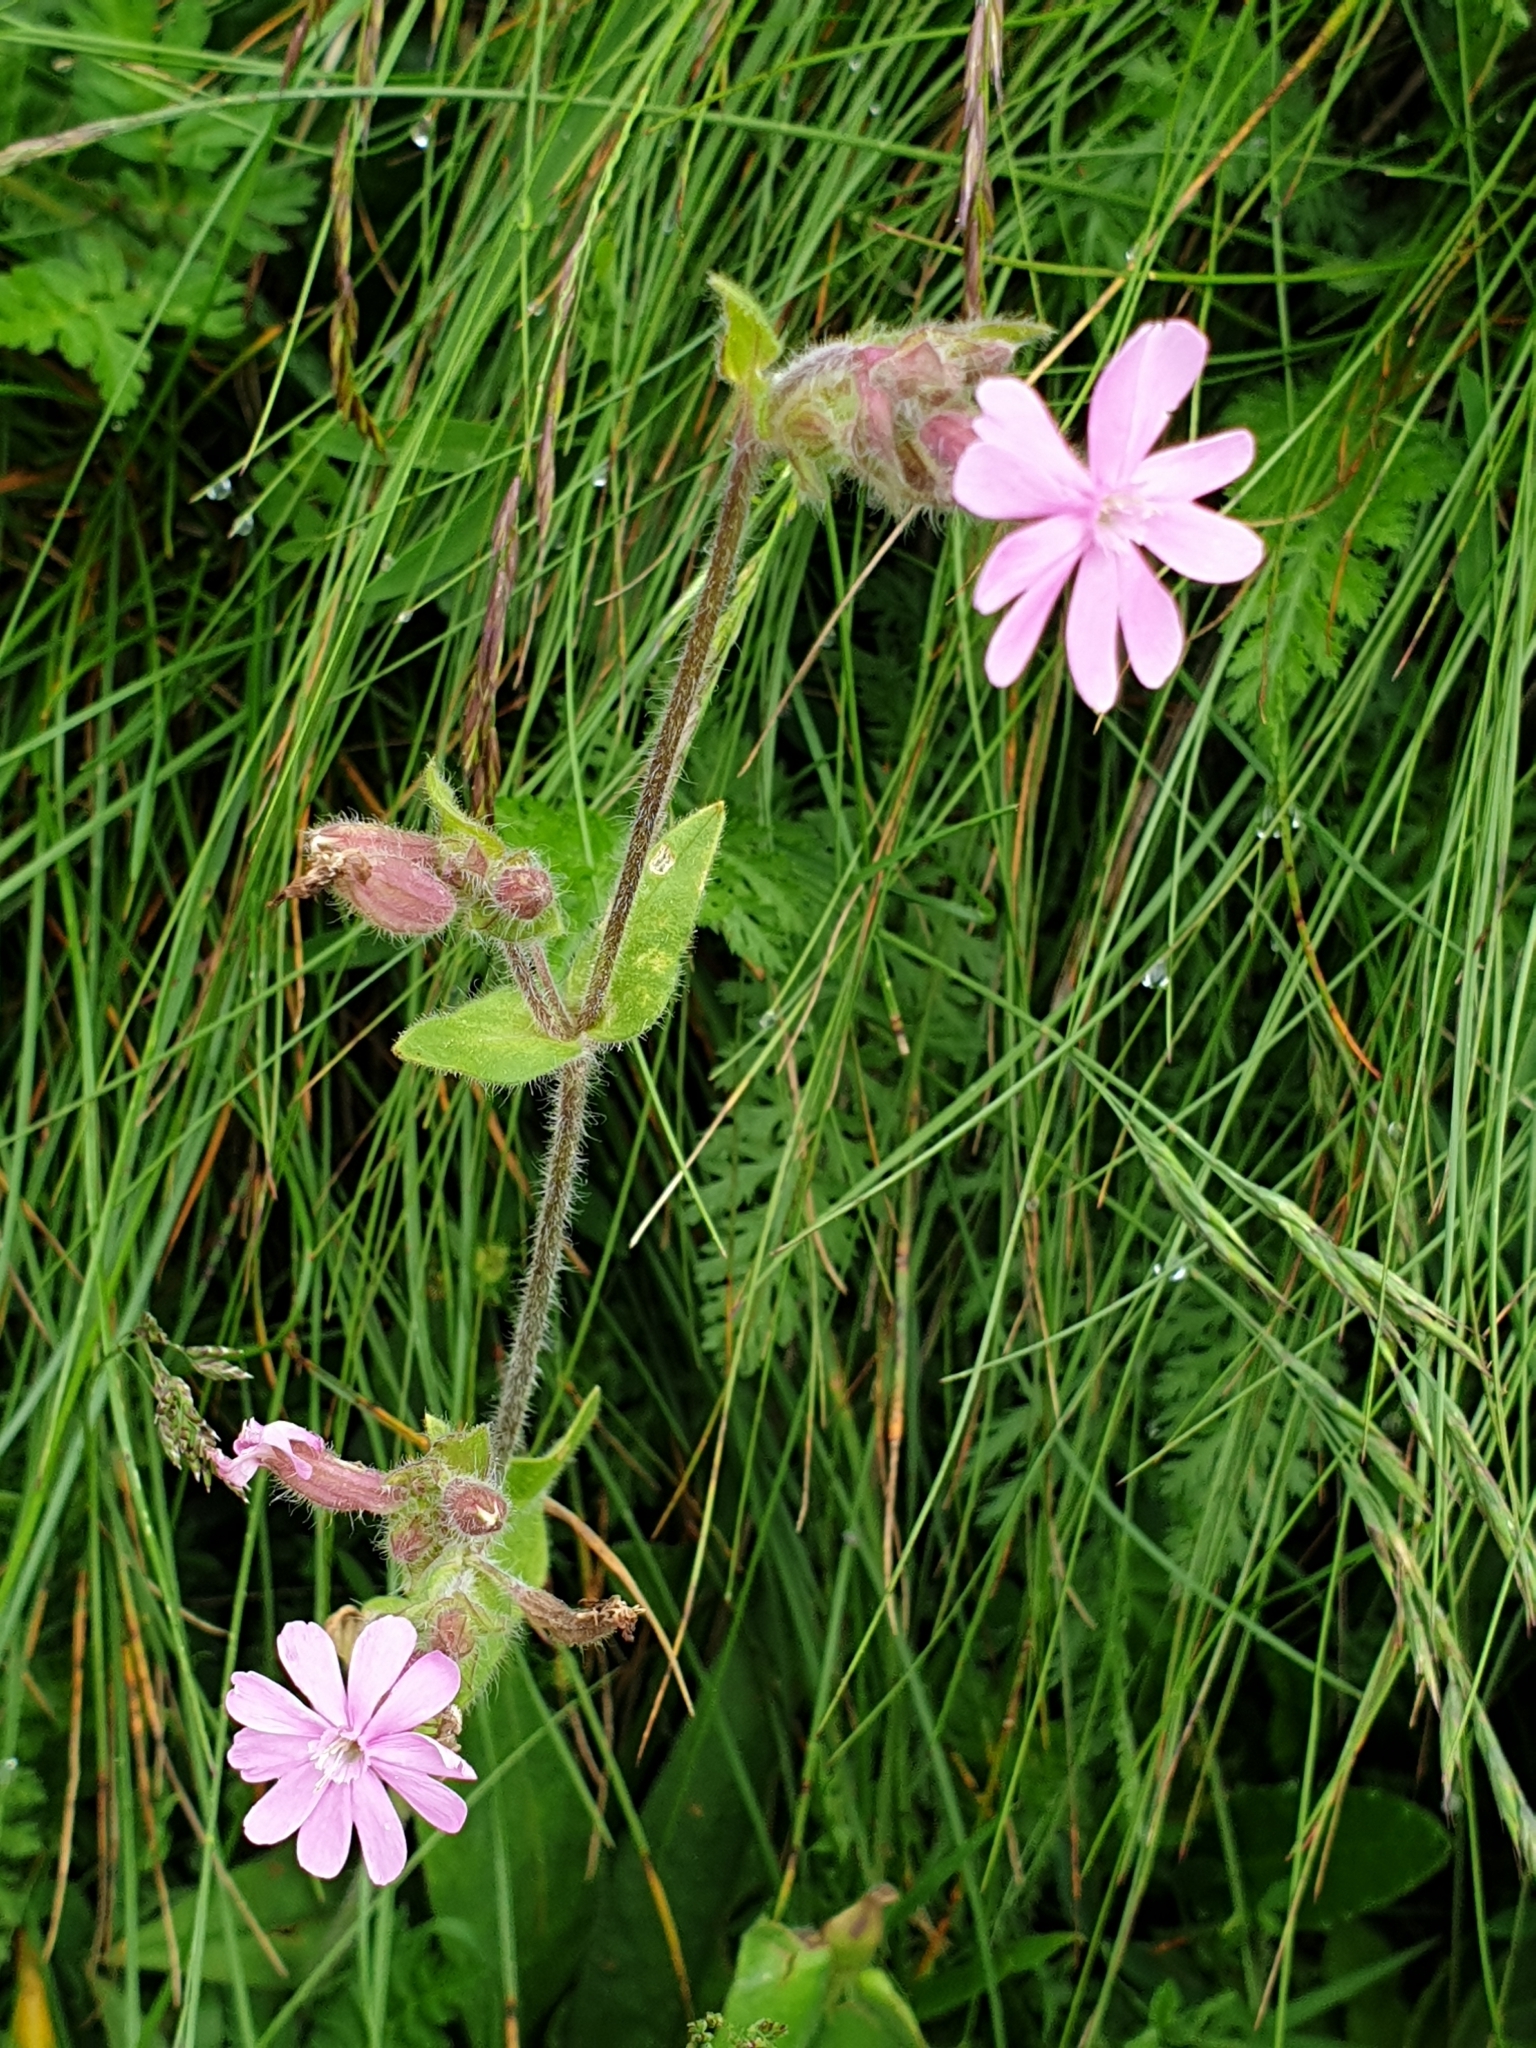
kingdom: Plantae
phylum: Tracheophyta
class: Magnoliopsida
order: Caryophyllales
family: Caryophyllaceae
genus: Silene
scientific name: Silene dioica
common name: Red campion
